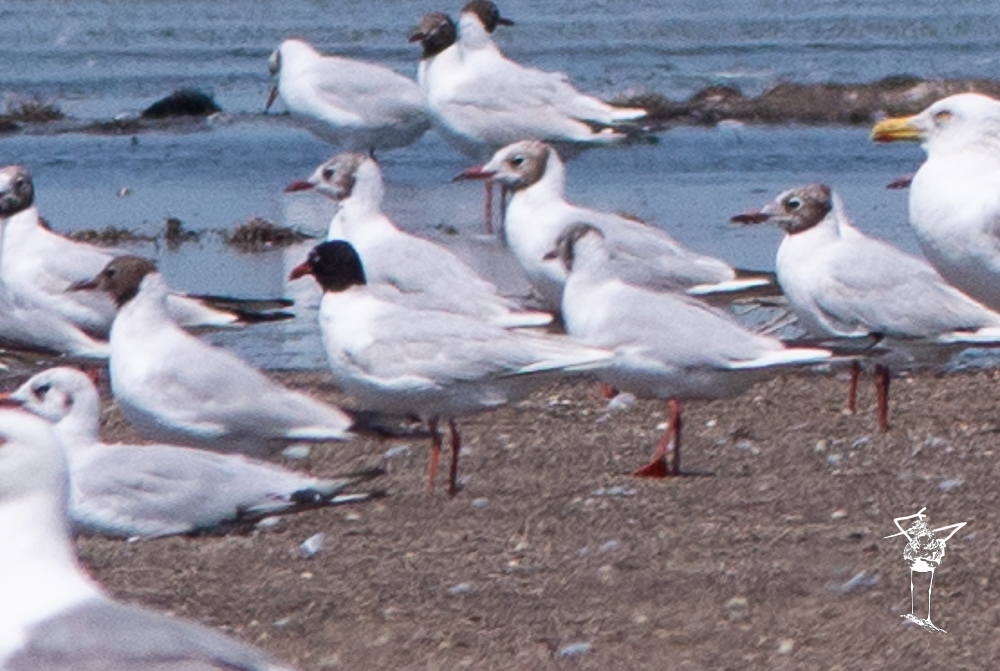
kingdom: Animalia
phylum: Chordata
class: Aves
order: Charadriiformes
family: Laridae
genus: Ichthyaetus
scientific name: Ichthyaetus melanocephalus
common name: Mediterranean gull
